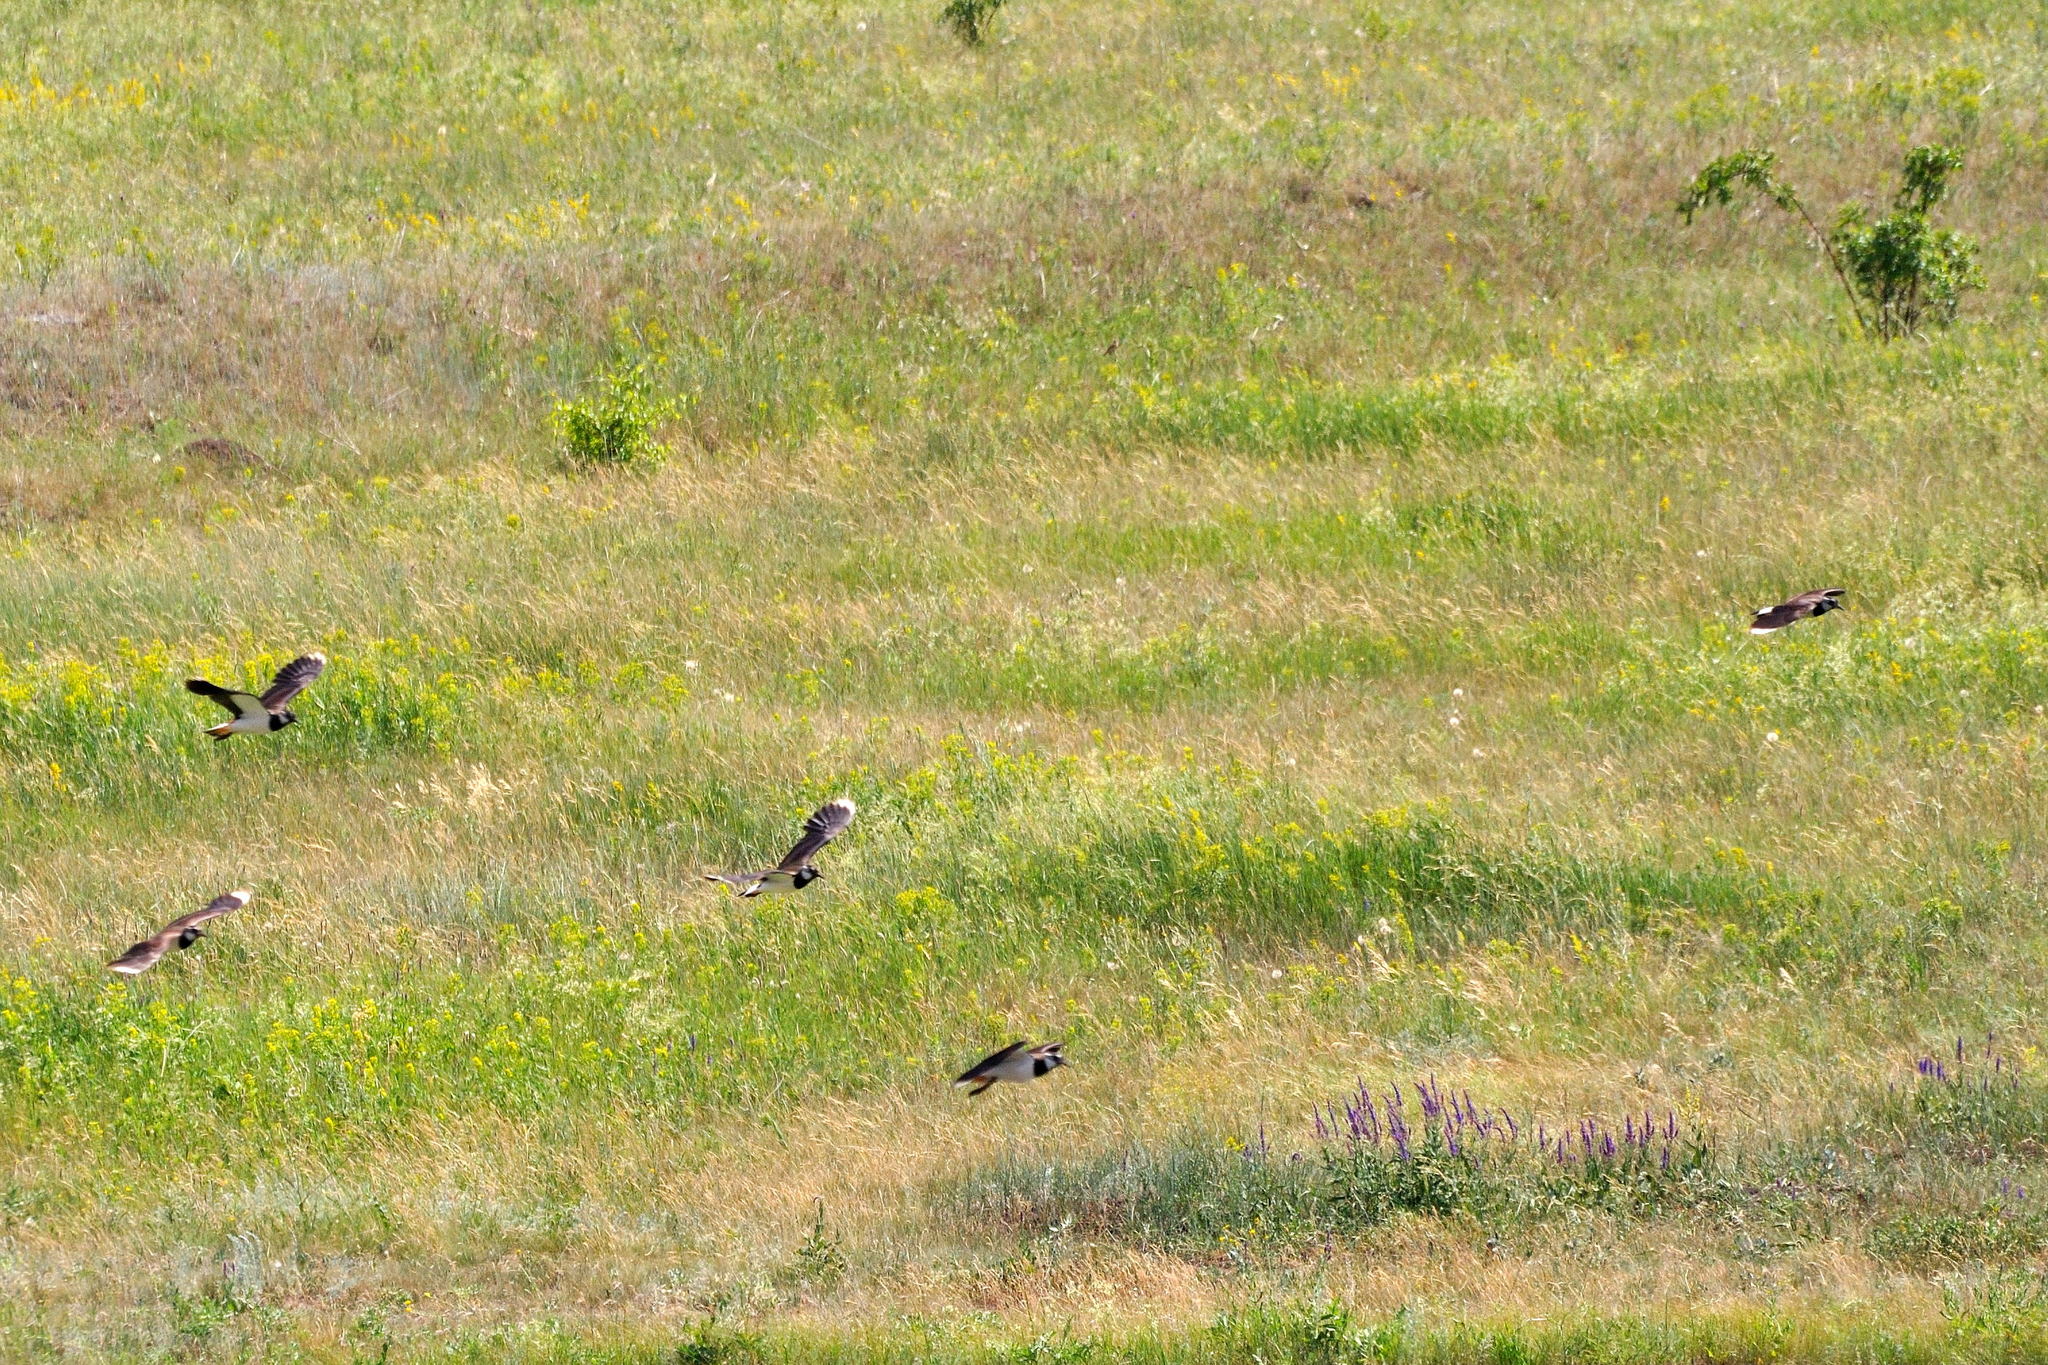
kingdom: Animalia
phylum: Chordata
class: Aves
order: Charadriiformes
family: Charadriidae
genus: Vanellus
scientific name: Vanellus vanellus
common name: Northern lapwing
